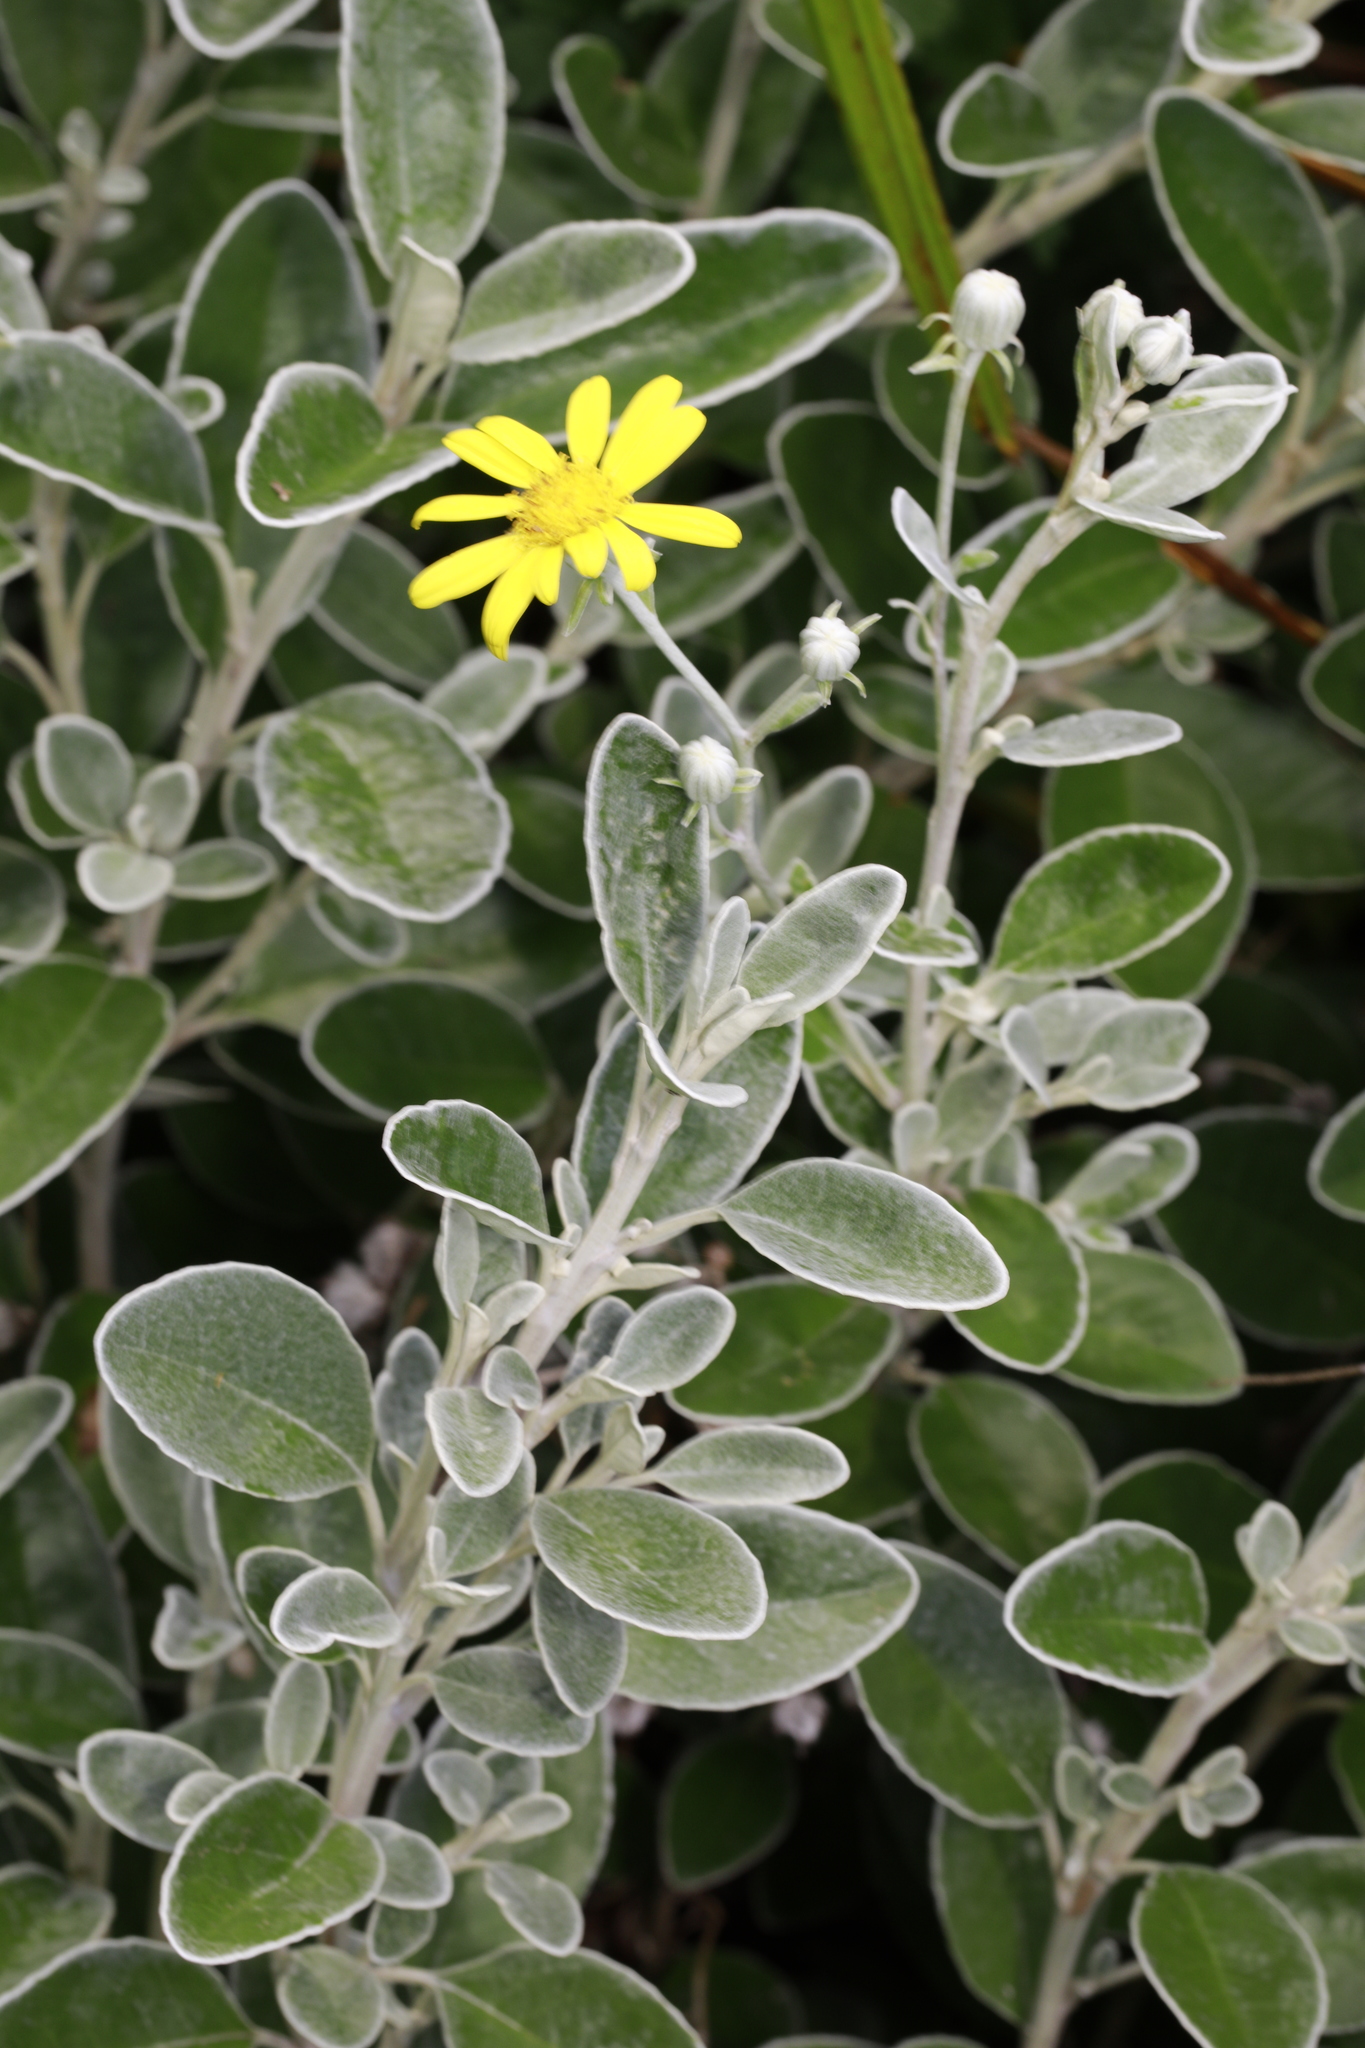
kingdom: Plantae
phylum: Tracheophyta
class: Magnoliopsida
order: Asterales
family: Asteraceae
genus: Brachyglottis
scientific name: Brachyglottis jubar
